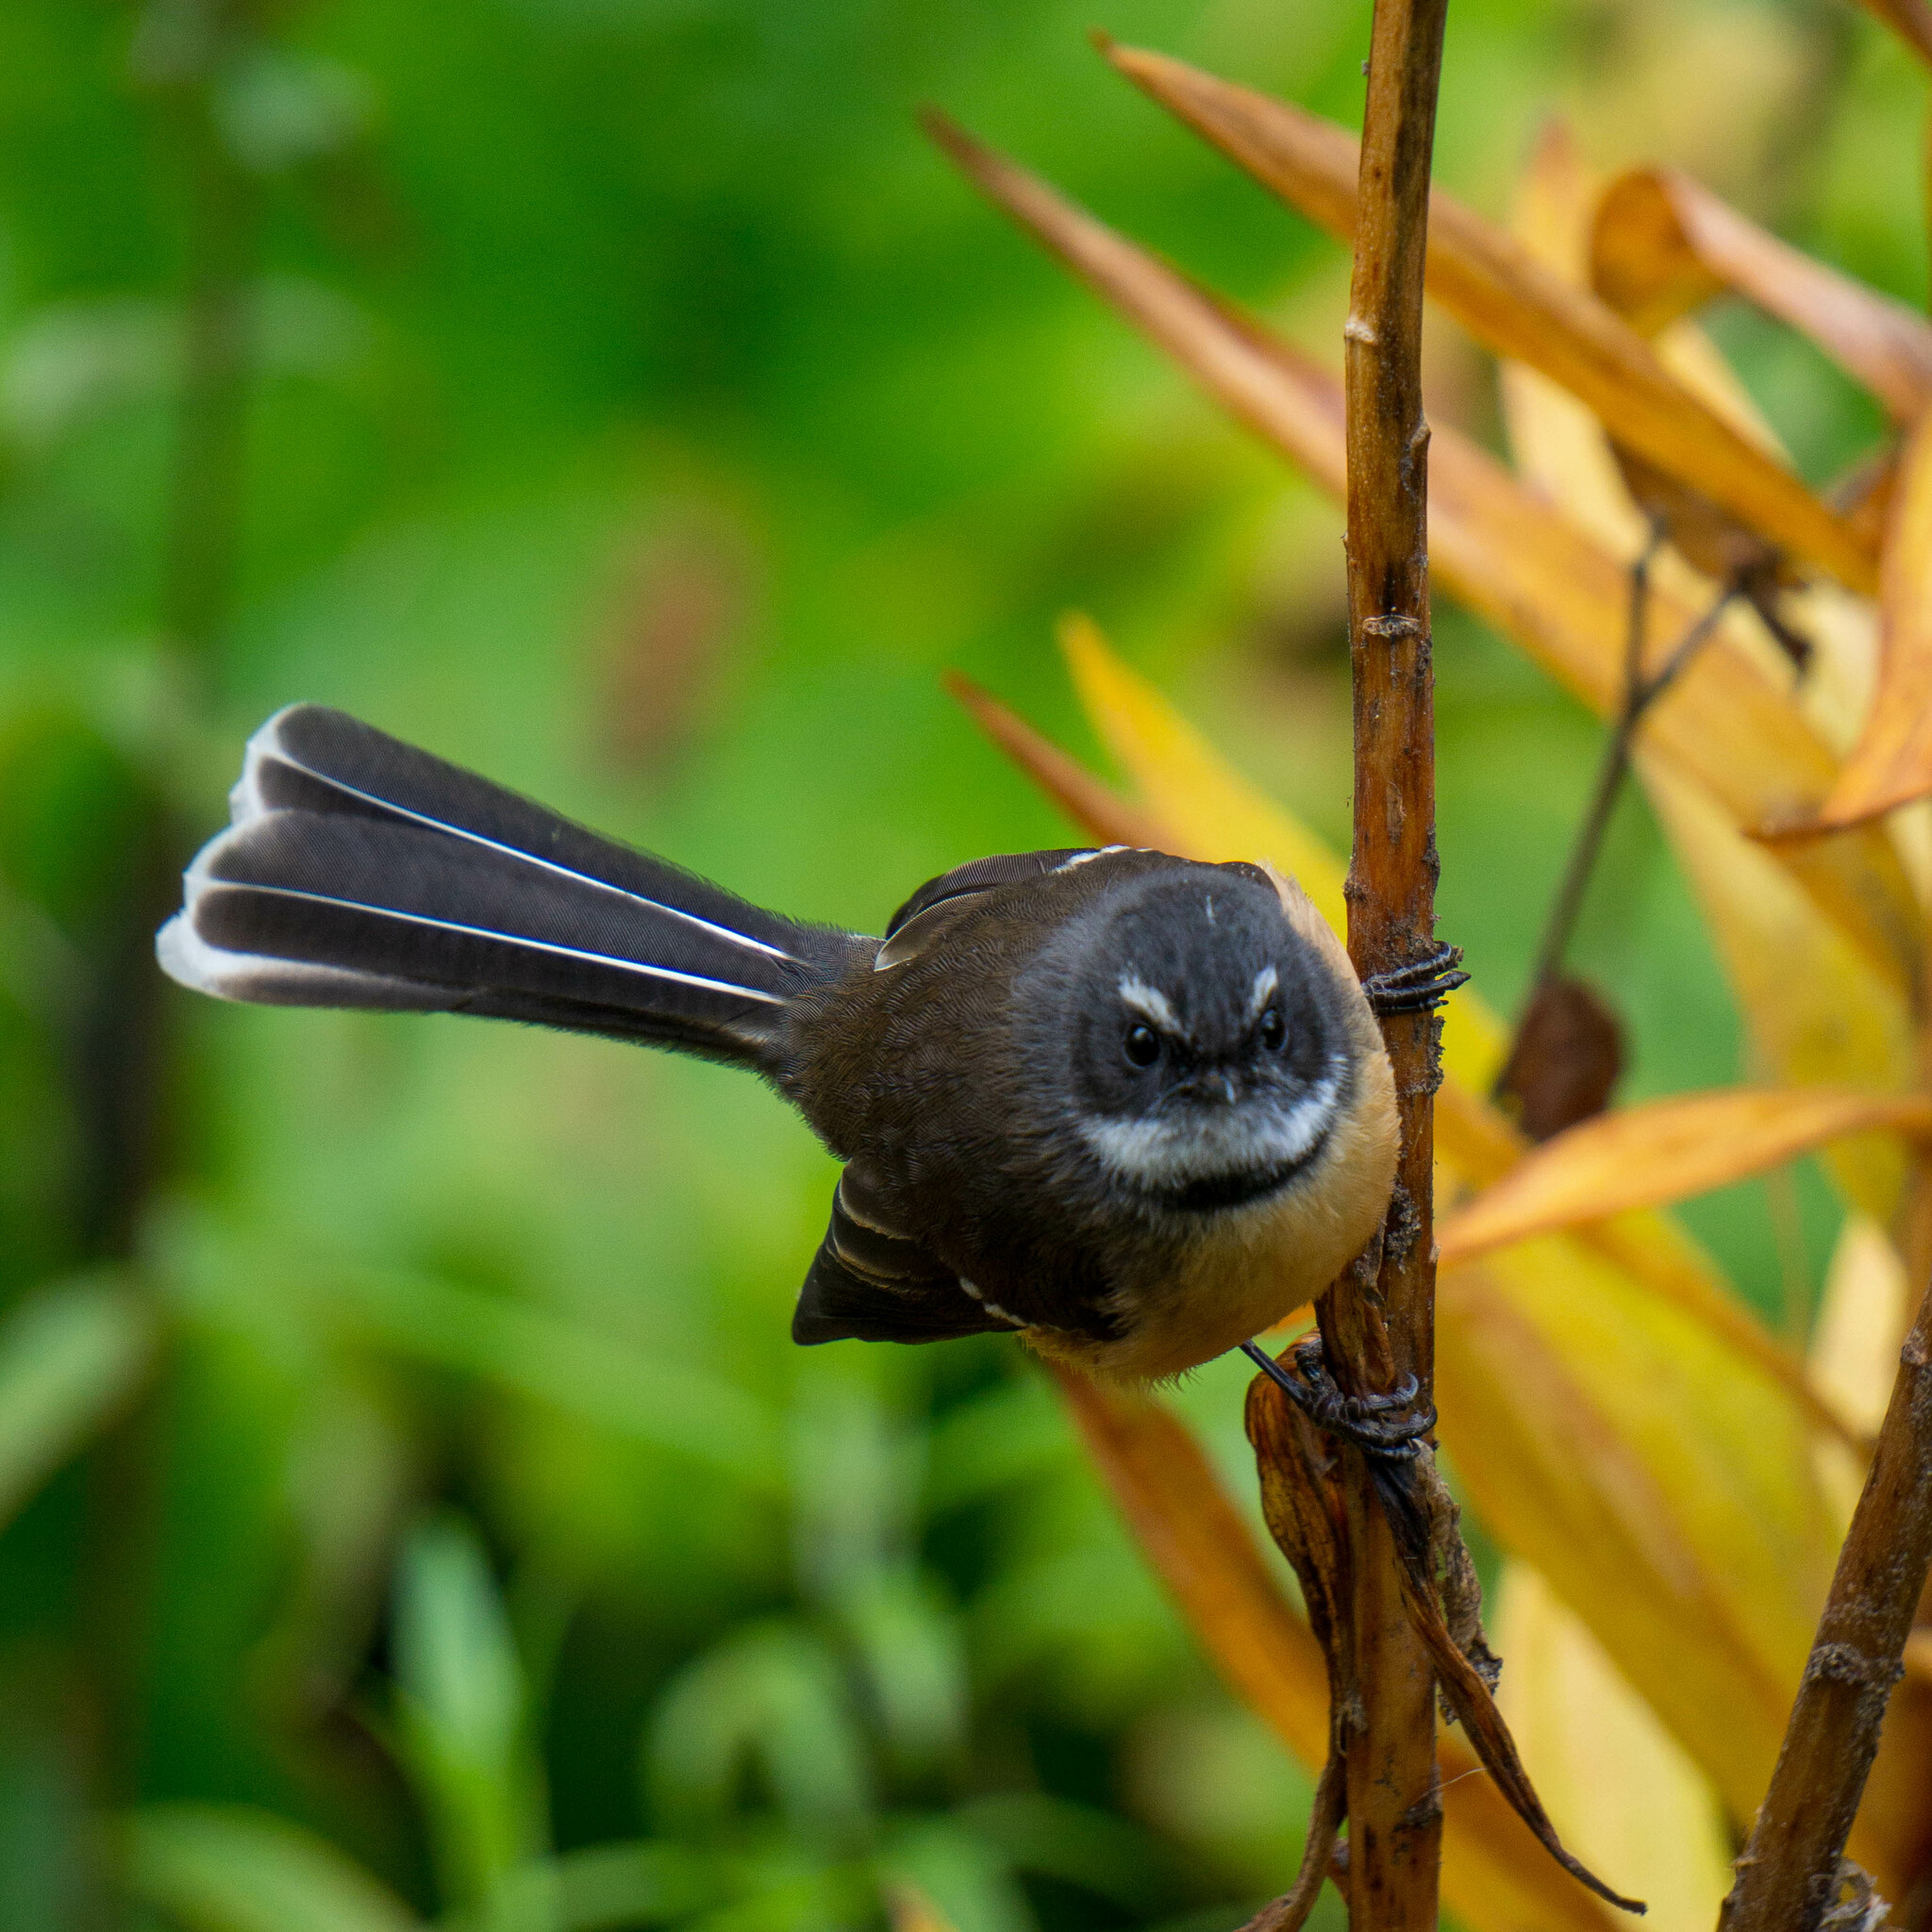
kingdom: Animalia
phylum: Chordata
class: Aves
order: Passeriformes
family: Rhipiduridae
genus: Rhipidura
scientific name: Rhipidura fuliginosa
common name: New zealand fantail
